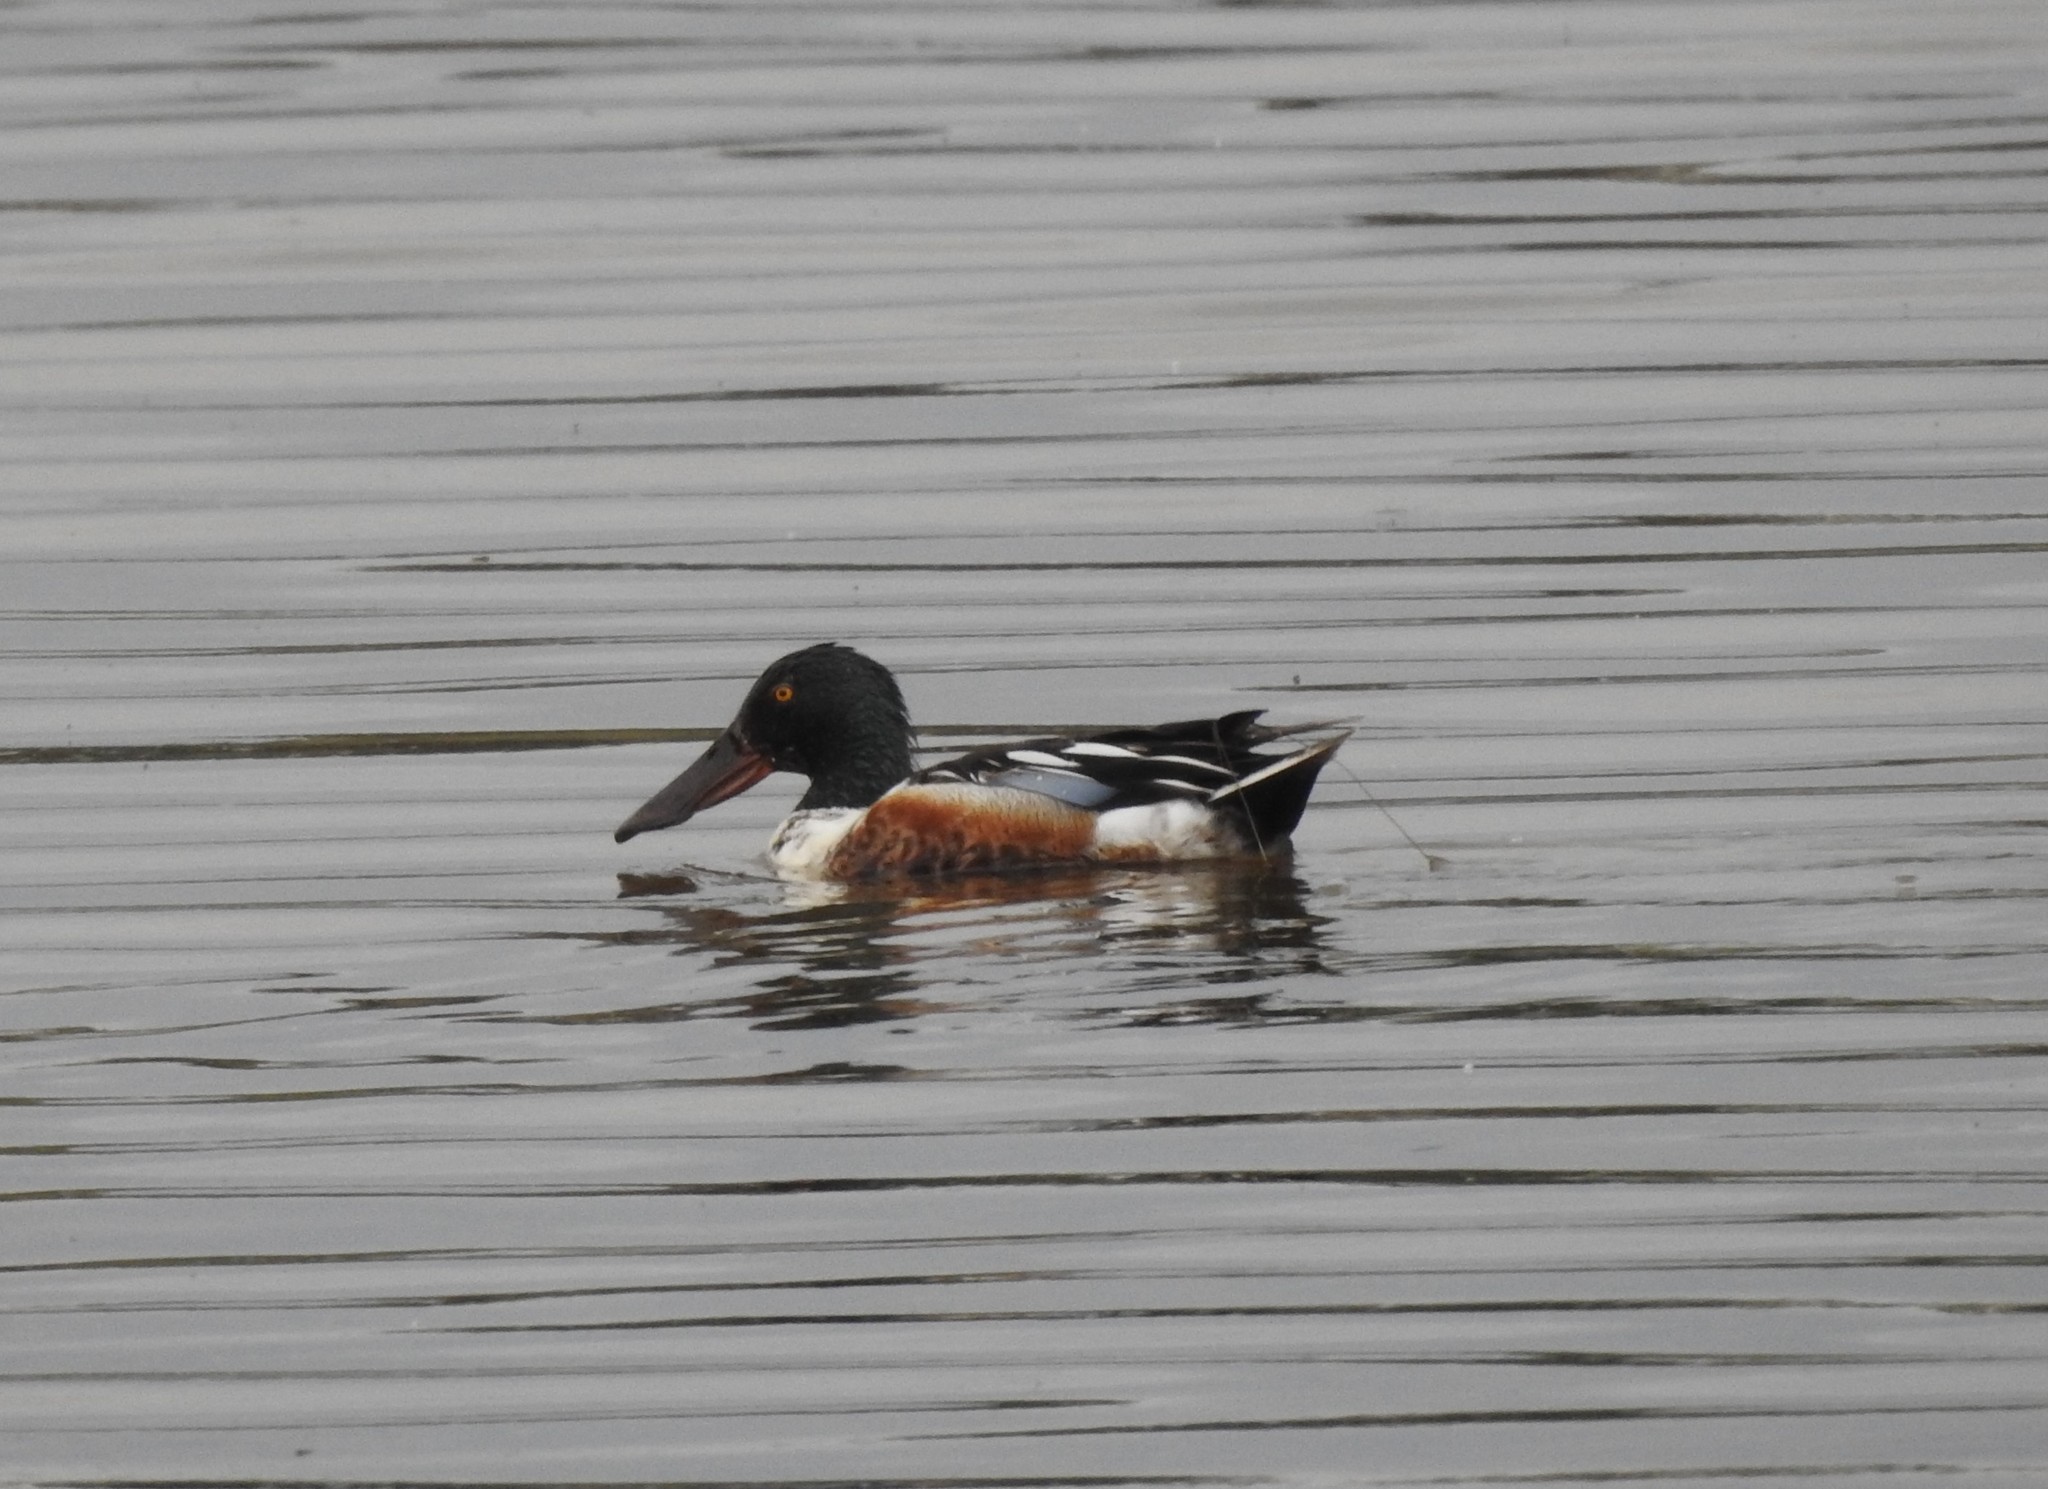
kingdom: Animalia
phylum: Chordata
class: Aves
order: Anseriformes
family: Anatidae
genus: Spatula
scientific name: Spatula clypeata
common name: Northern shoveler
